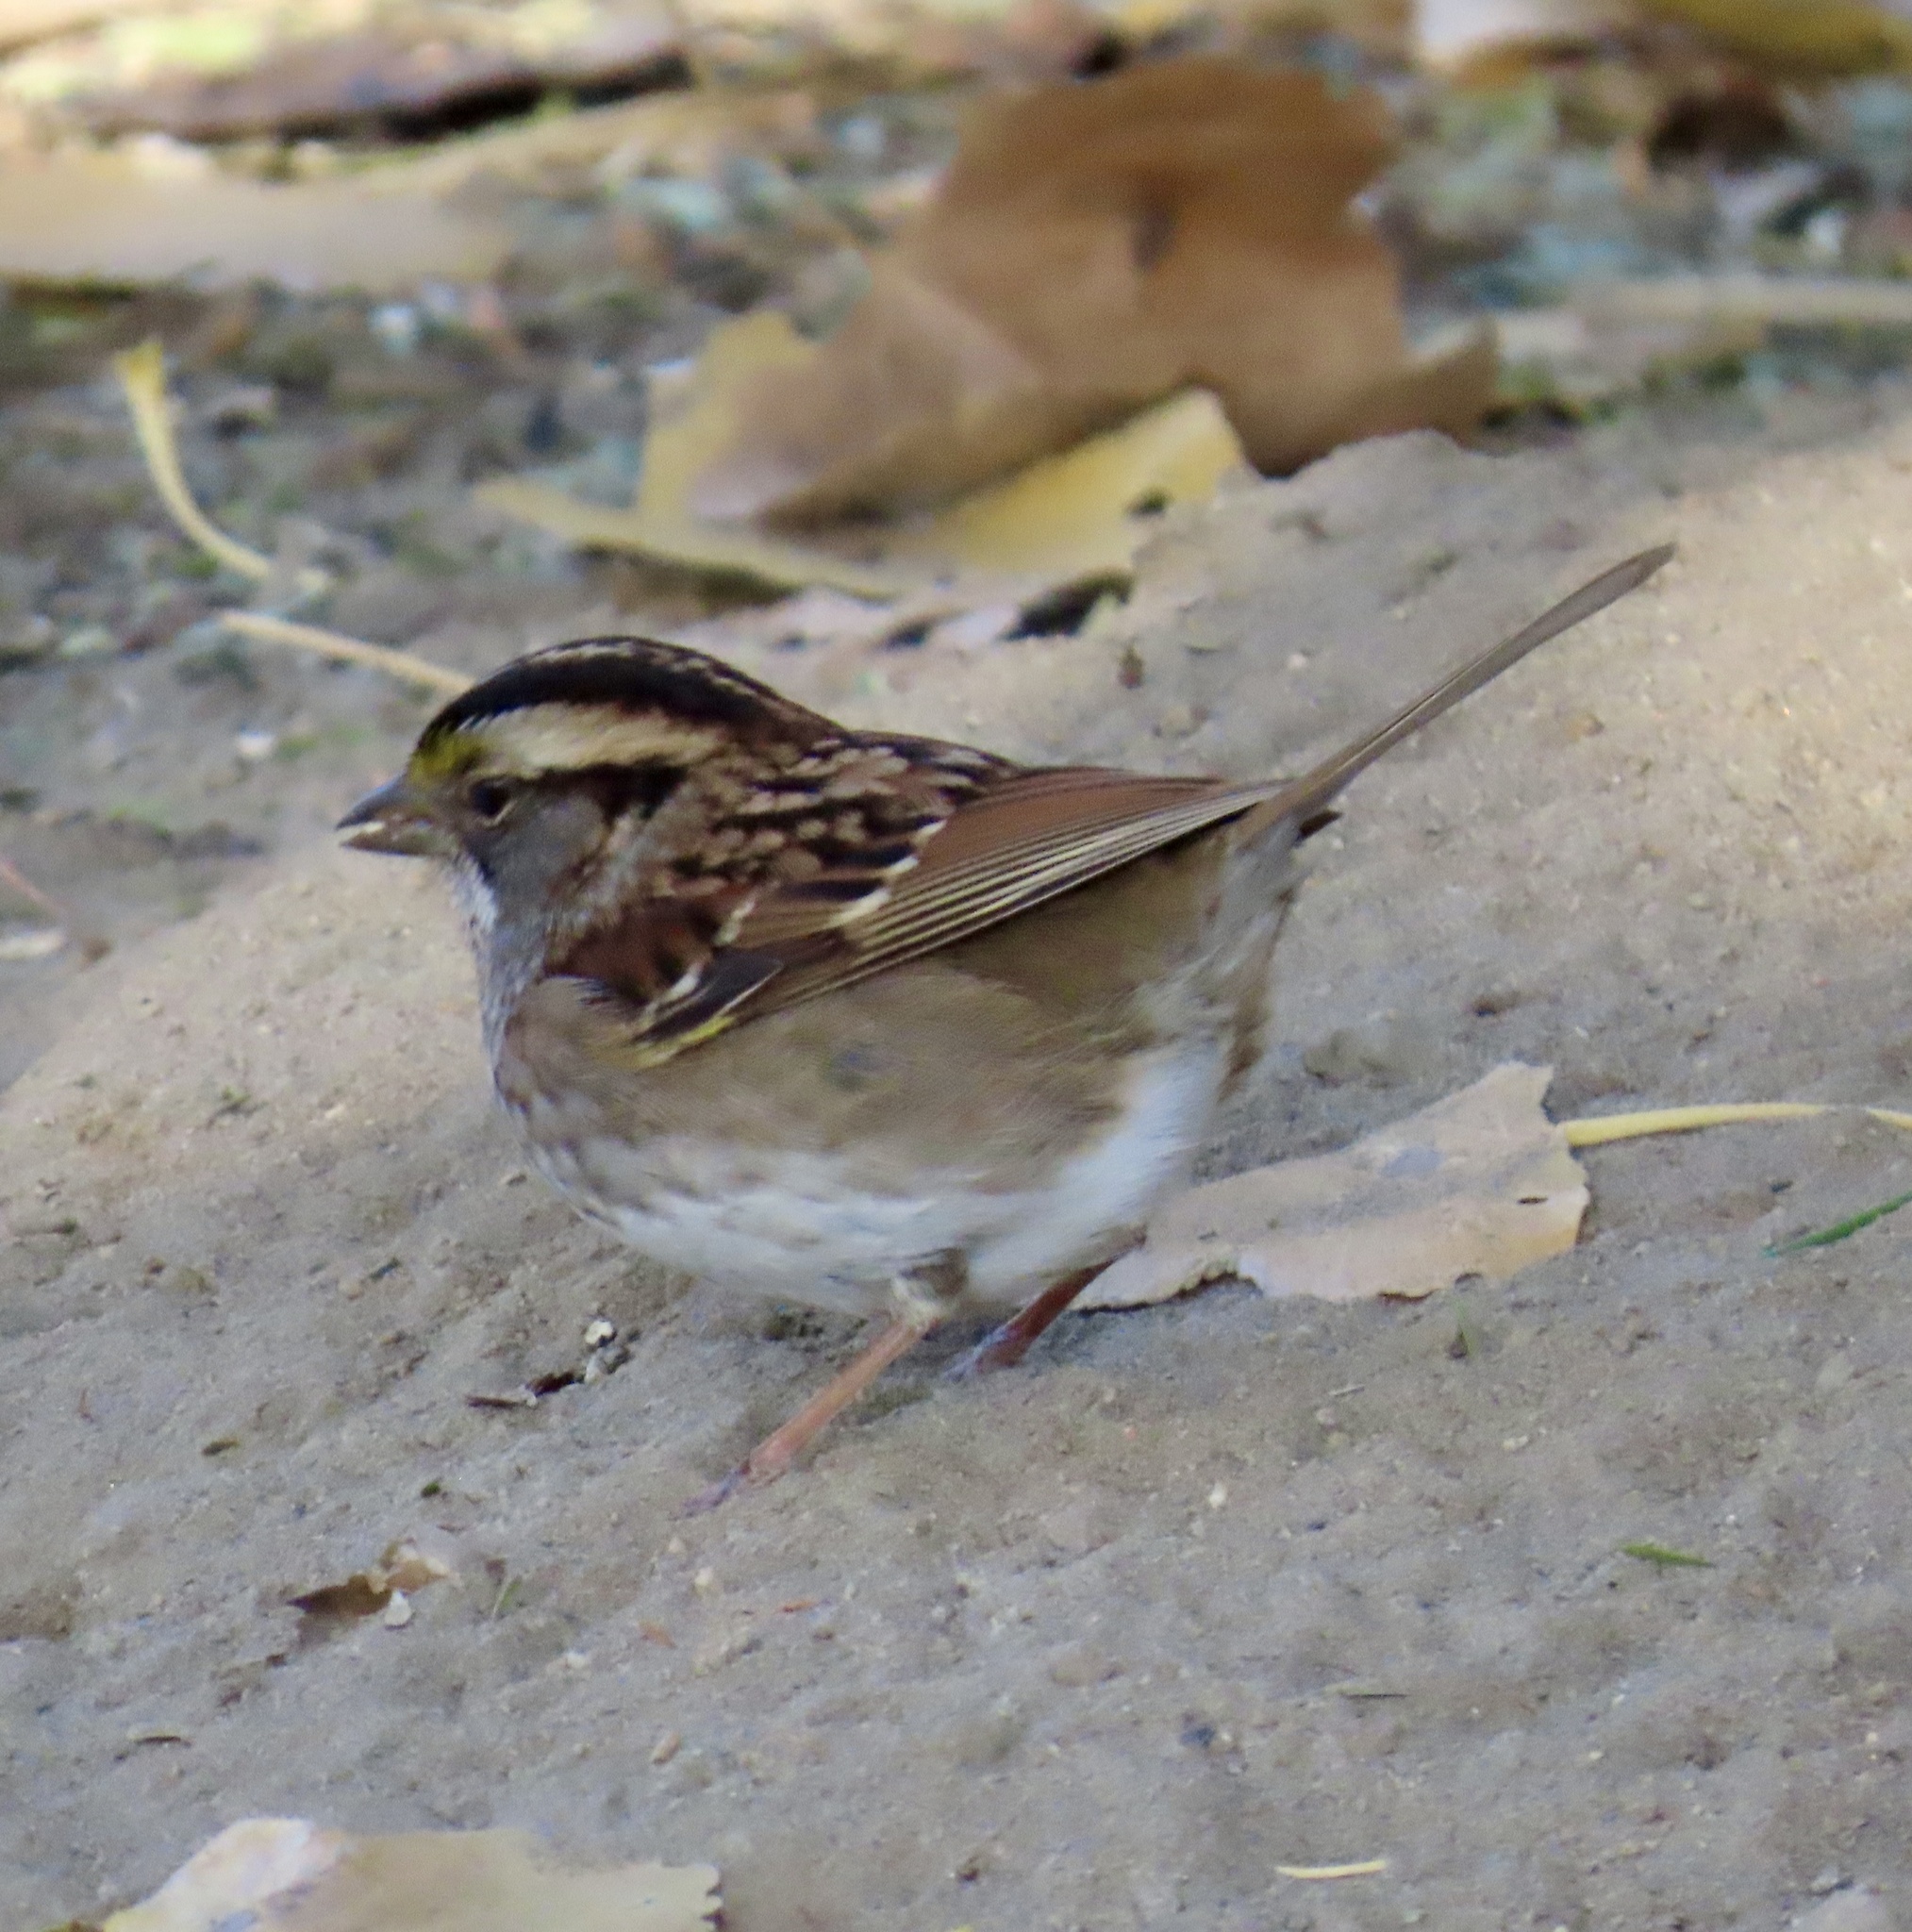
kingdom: Animalia
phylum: Chordata
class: Aves
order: Passeriformes
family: Passerellidae
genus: Zonotrichia
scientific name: Zonotrichia albicollis
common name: White-throated sparrow
